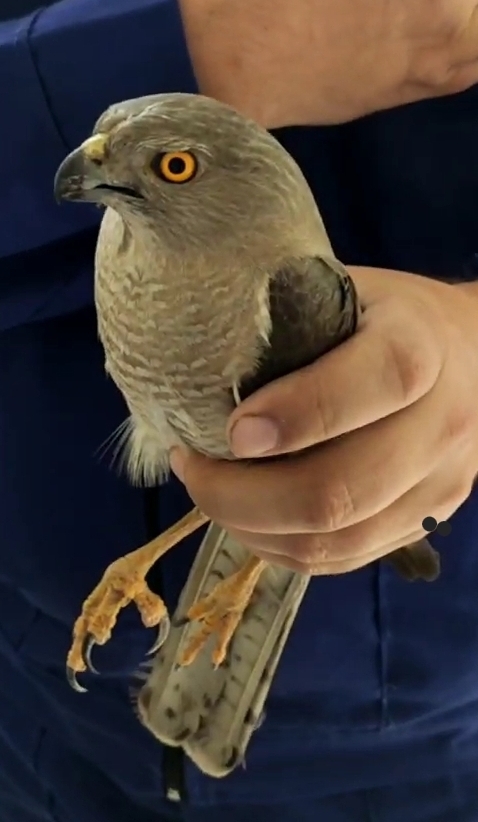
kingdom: Animalia
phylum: Chordata
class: Aves
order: Accipitriformes
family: Accipitridae
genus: Accipiter
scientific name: Accipiter badius
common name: Shikra
